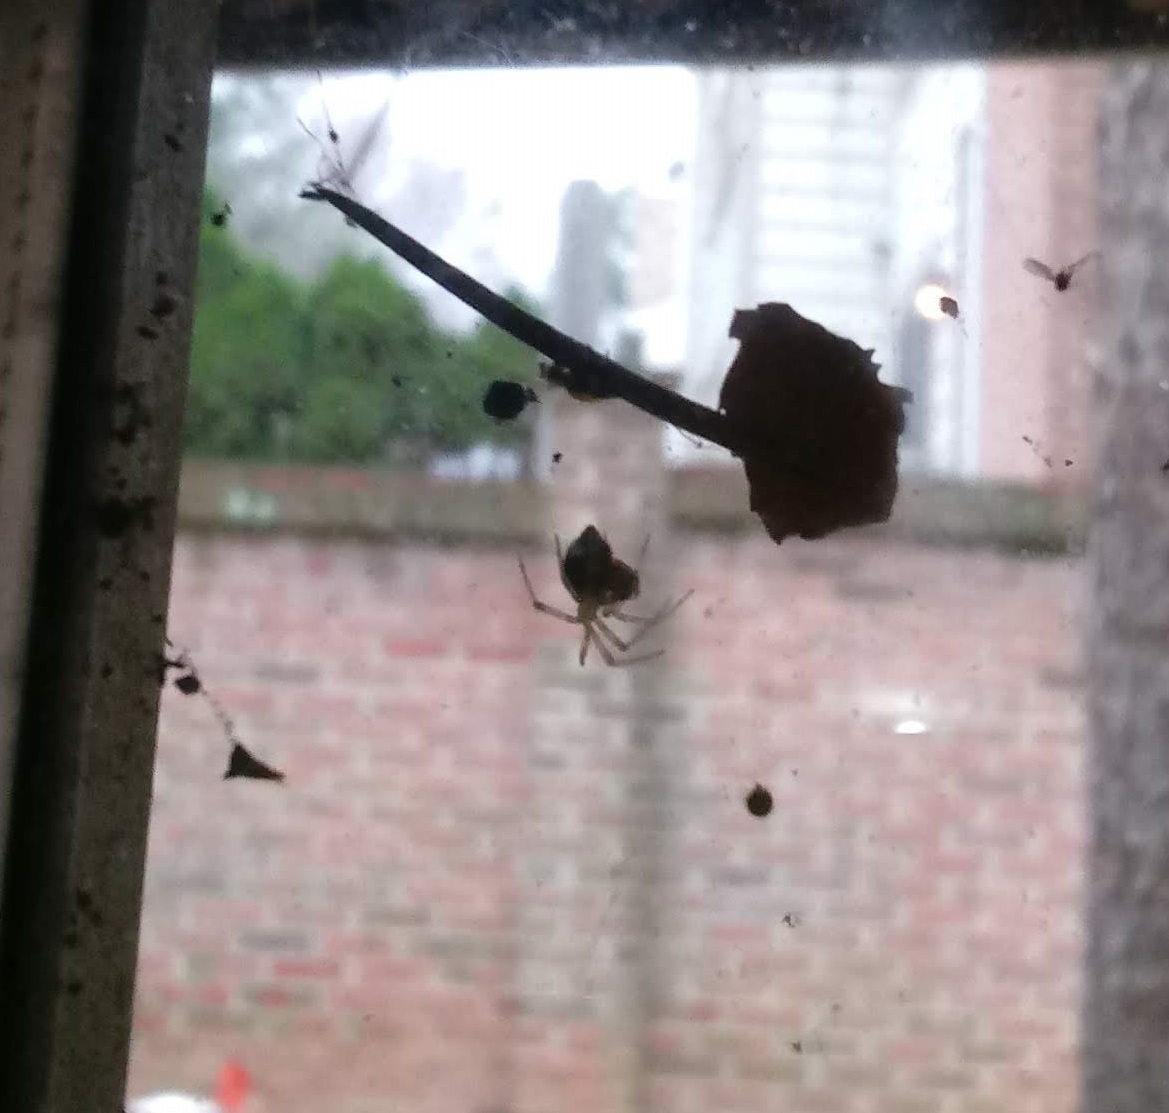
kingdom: Animalia
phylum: Arthropoda
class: Arachnida
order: Araneae
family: Theridiidae
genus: Parasteatoda
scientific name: Parasteatoda tepidariorum
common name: Common house spider
